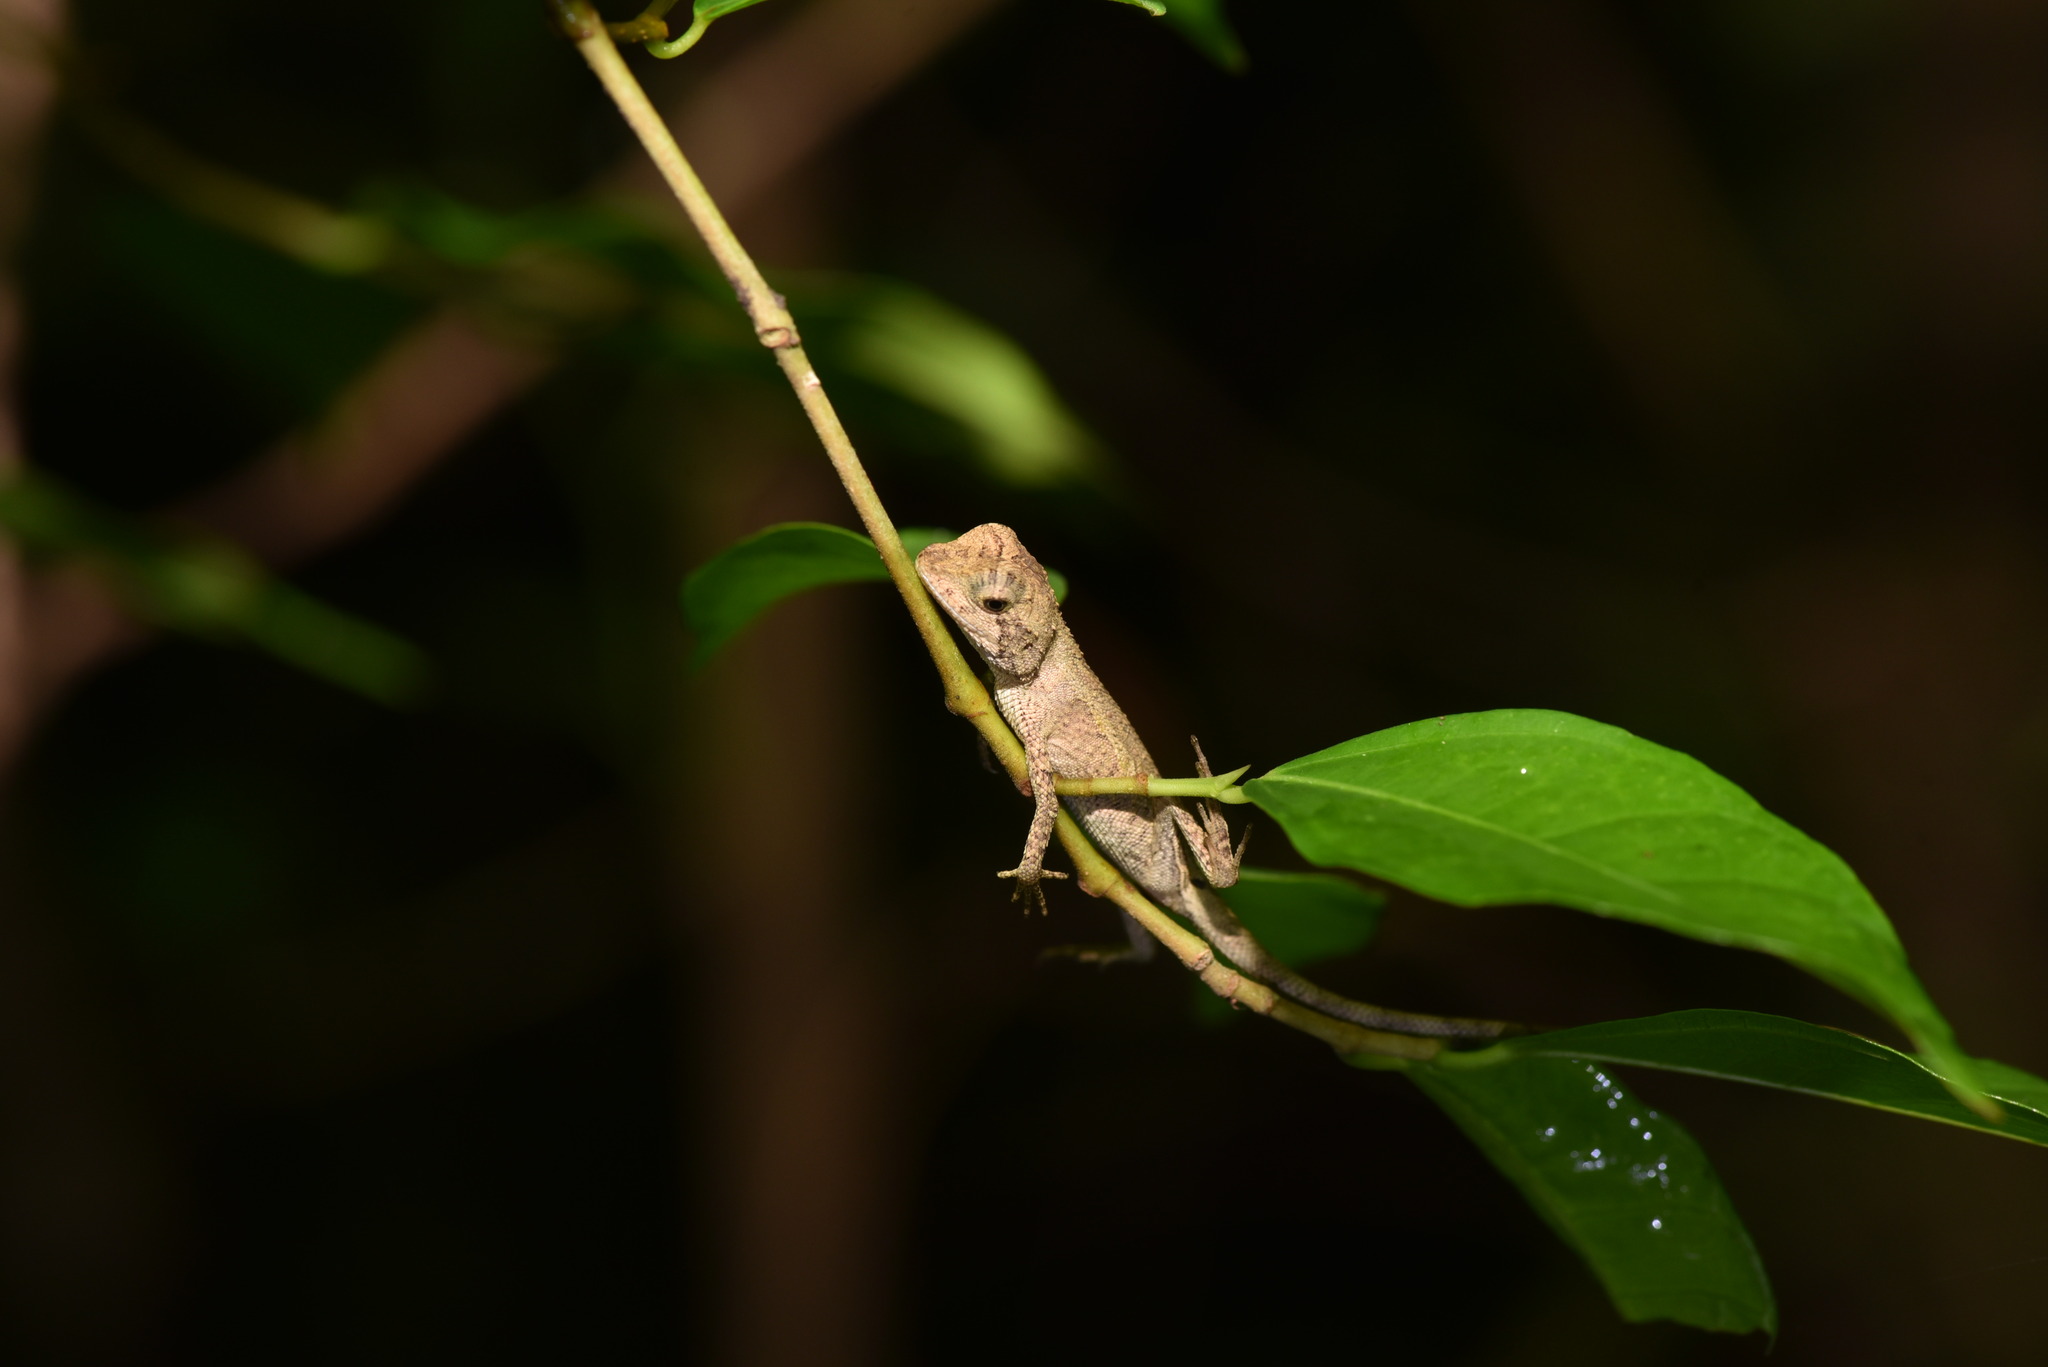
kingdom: Animalia
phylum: Chordata
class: Squamata
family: Agamidae
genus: Diploderma
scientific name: Diploderma swinhonis
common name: Taiwan japalure
